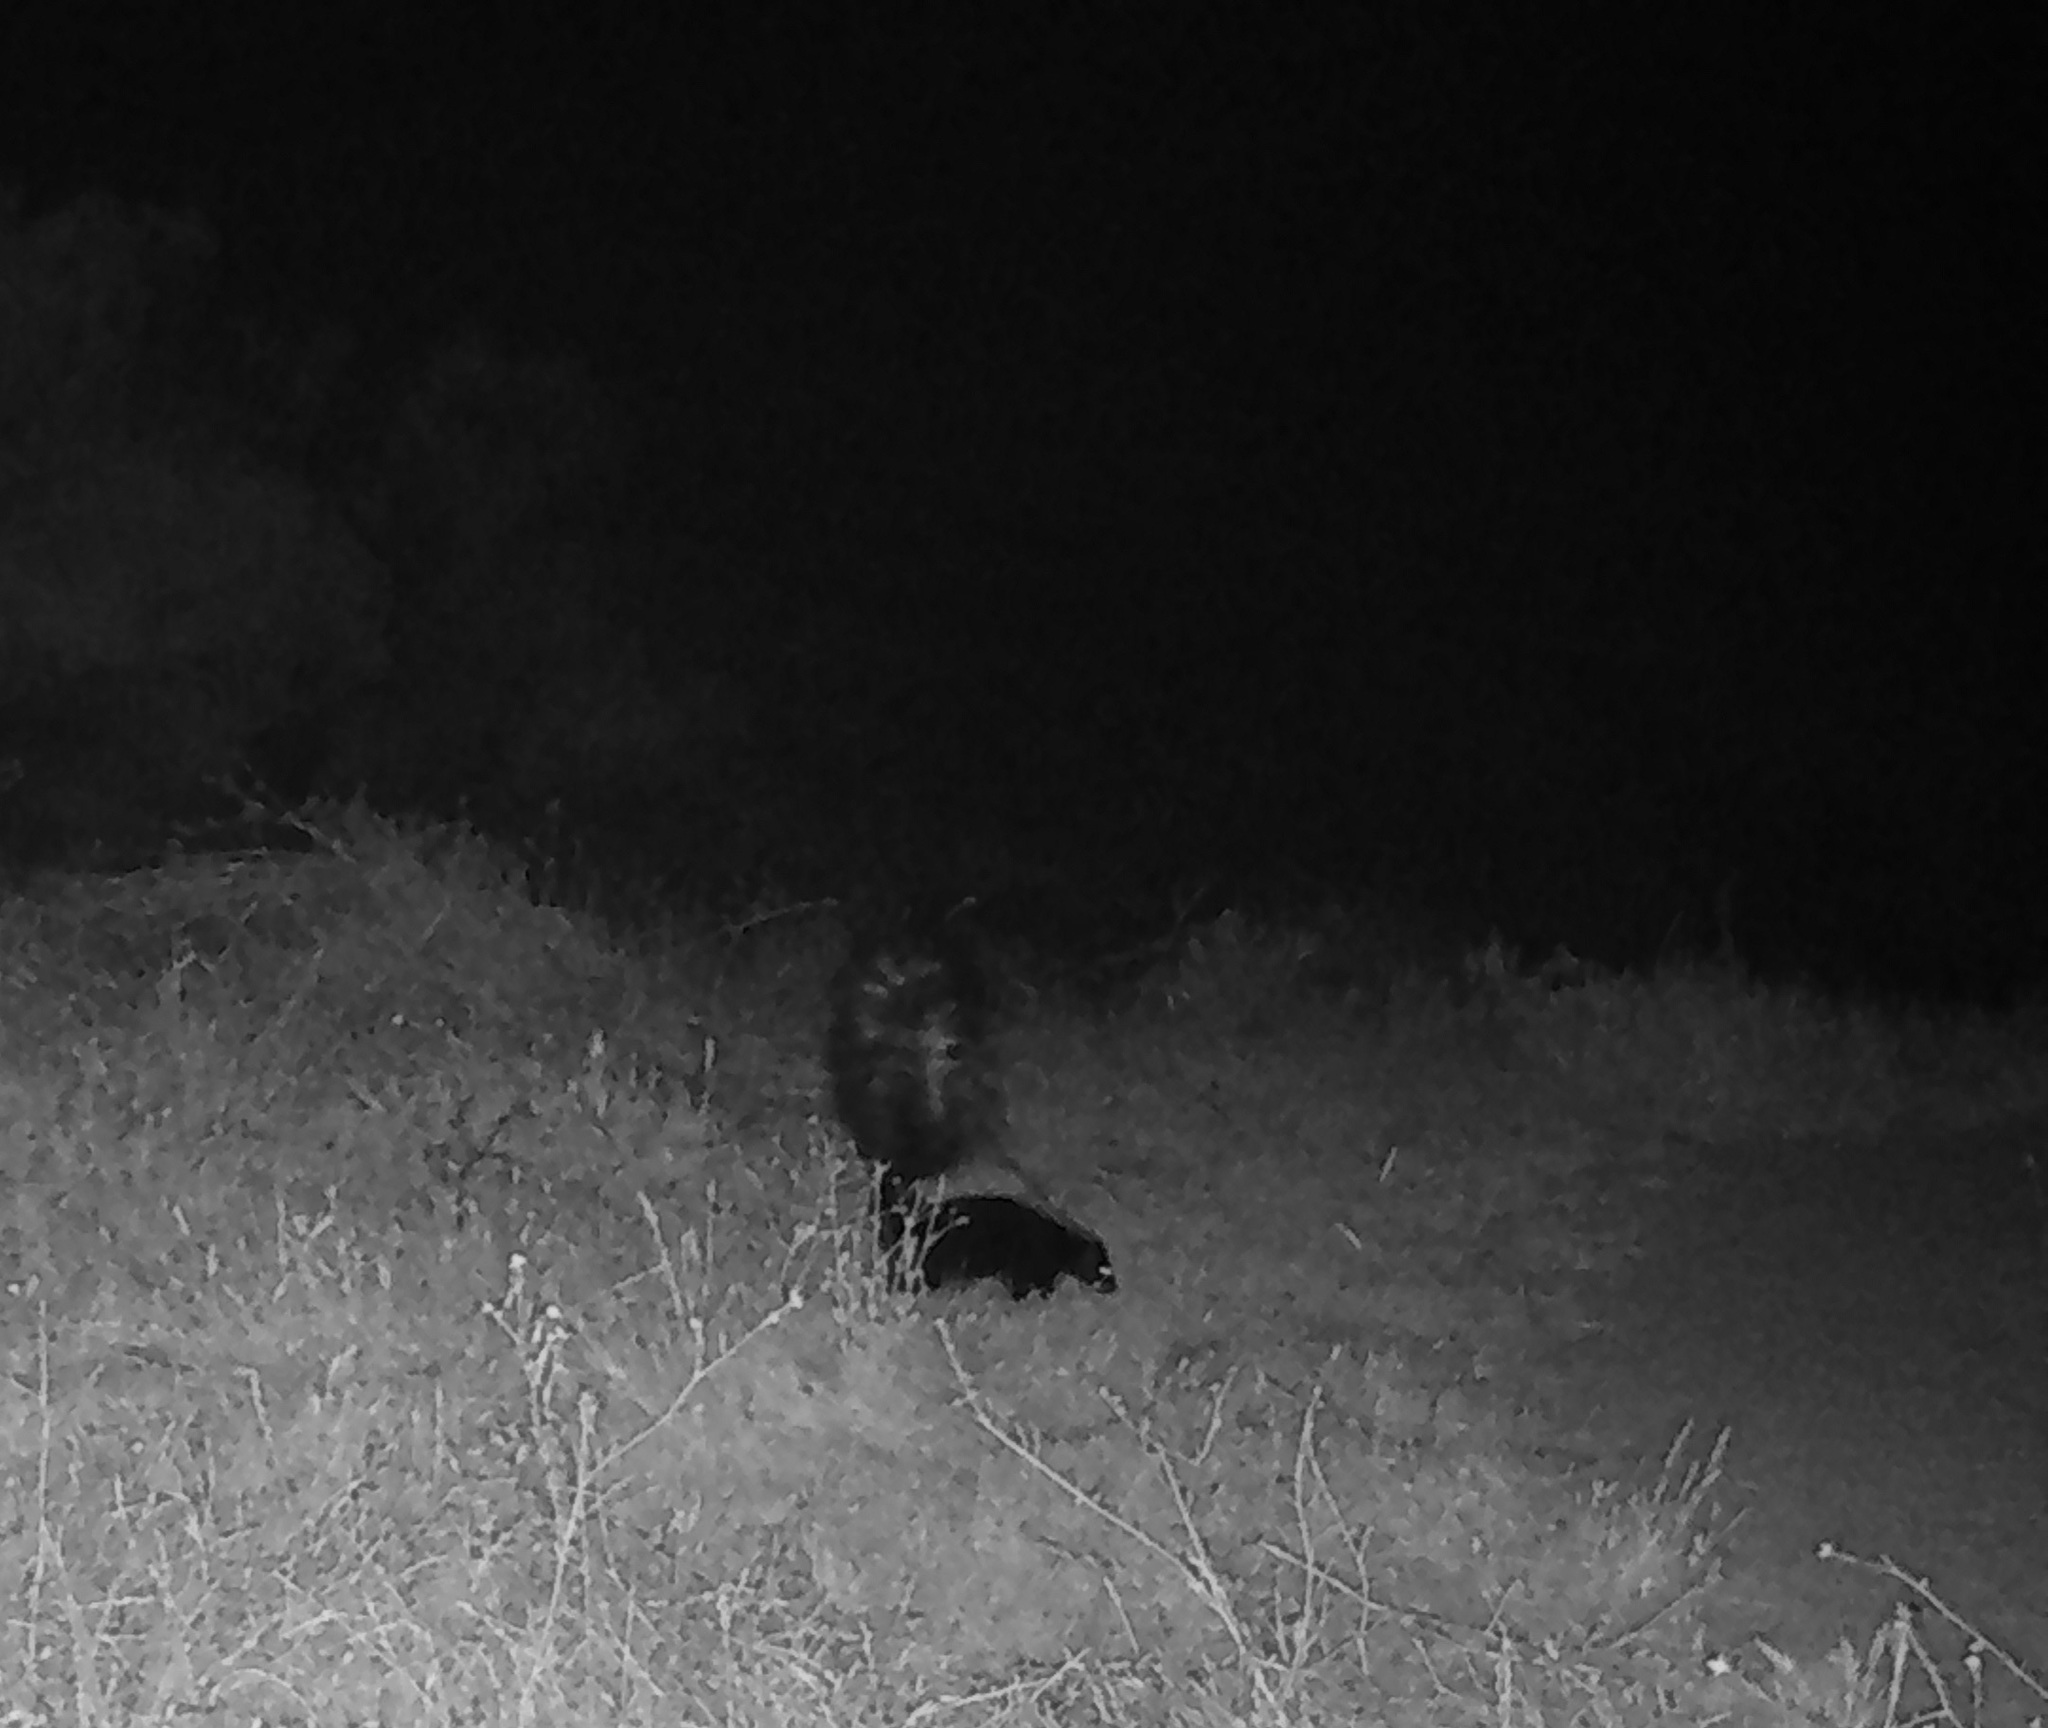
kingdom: Animalia
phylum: Chordata
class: Mammalia
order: Carnivora
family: Mephitidae
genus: Mephitis
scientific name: Mephitis mephitis
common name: Striped skunk
